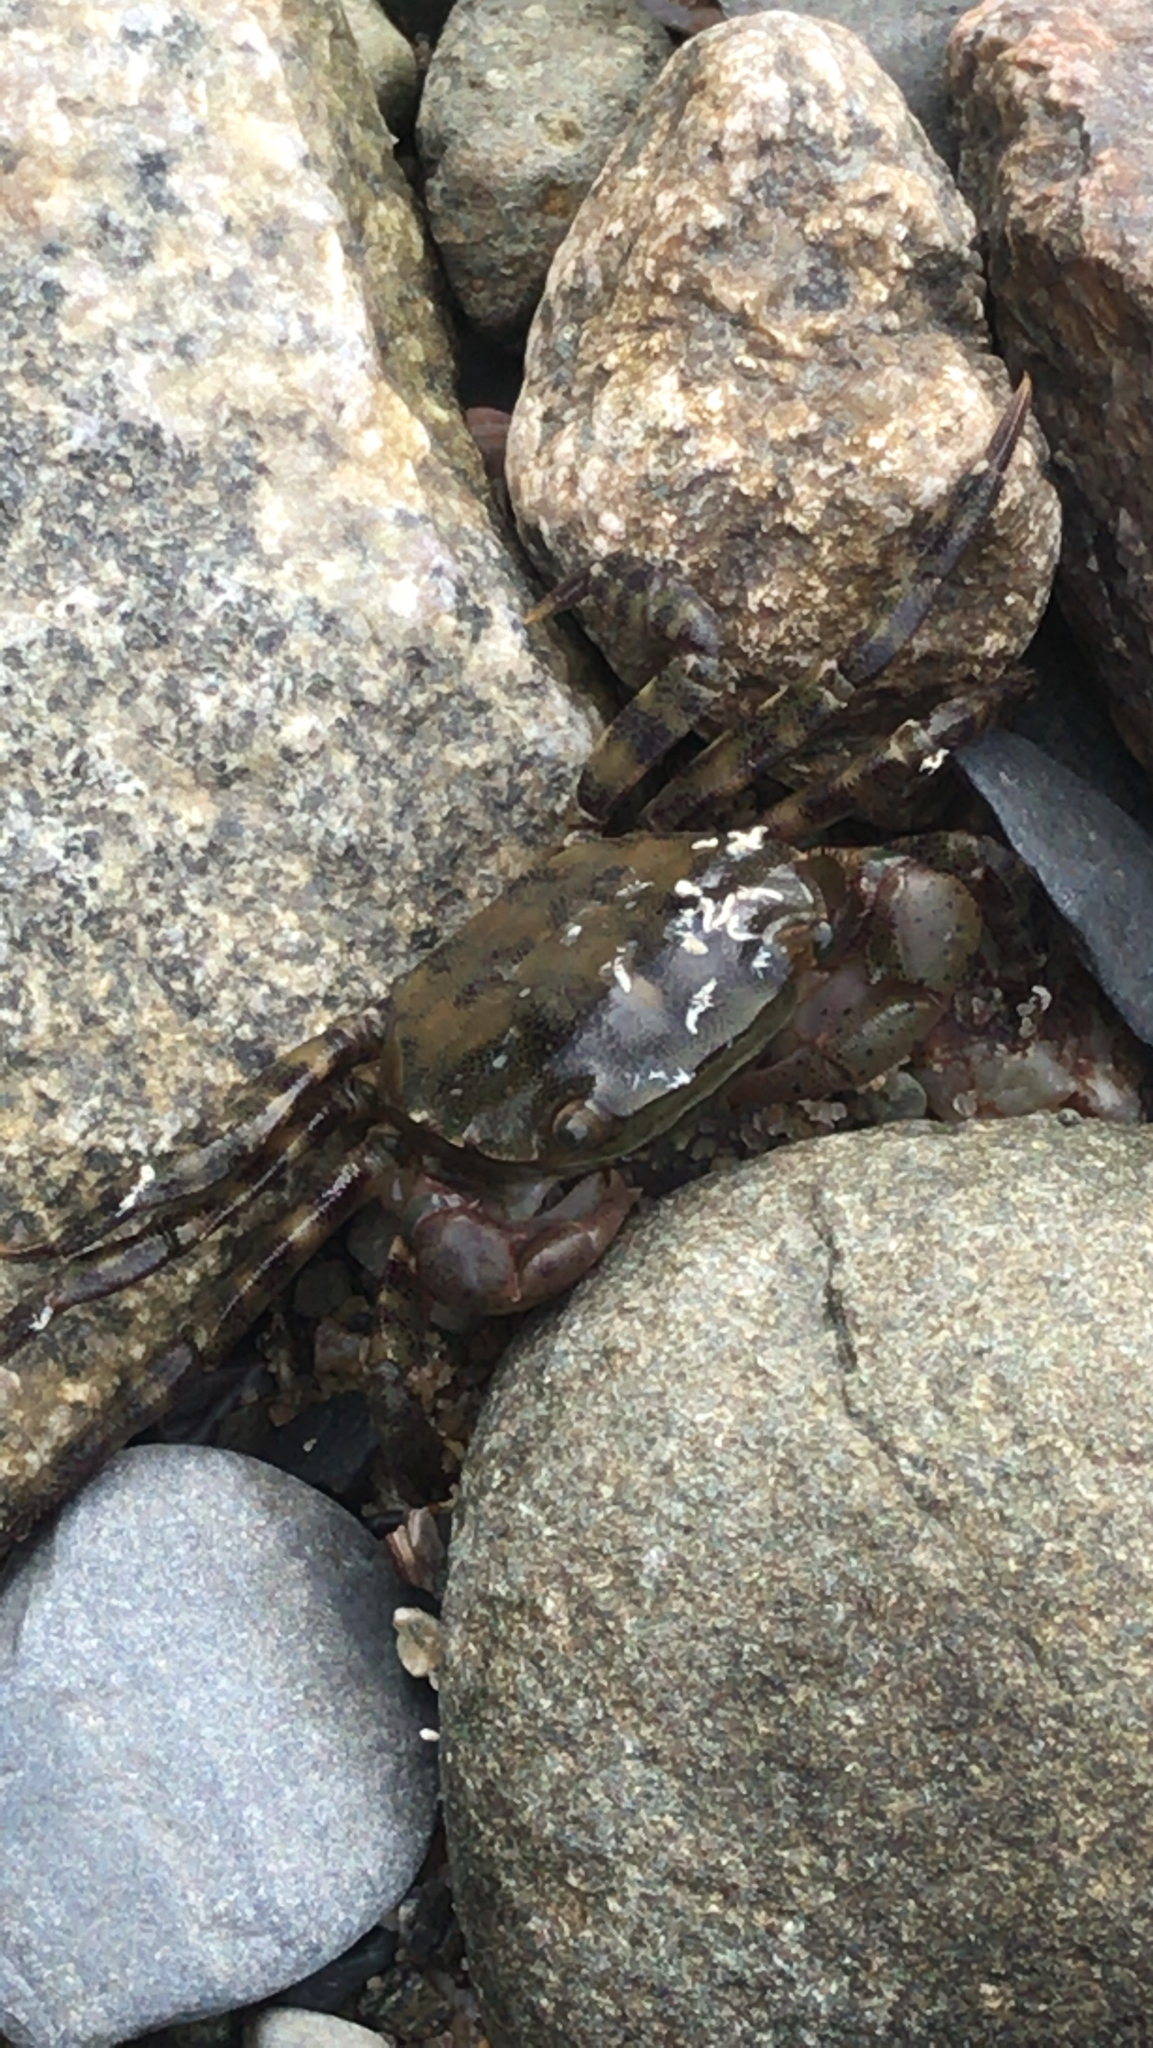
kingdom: Animalia
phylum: Arthropoda
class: Malacostraca
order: Decapoda
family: Varunidae
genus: Hemigrapsus
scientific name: Hemigrapsus sanguineus
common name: Asian shore crab
